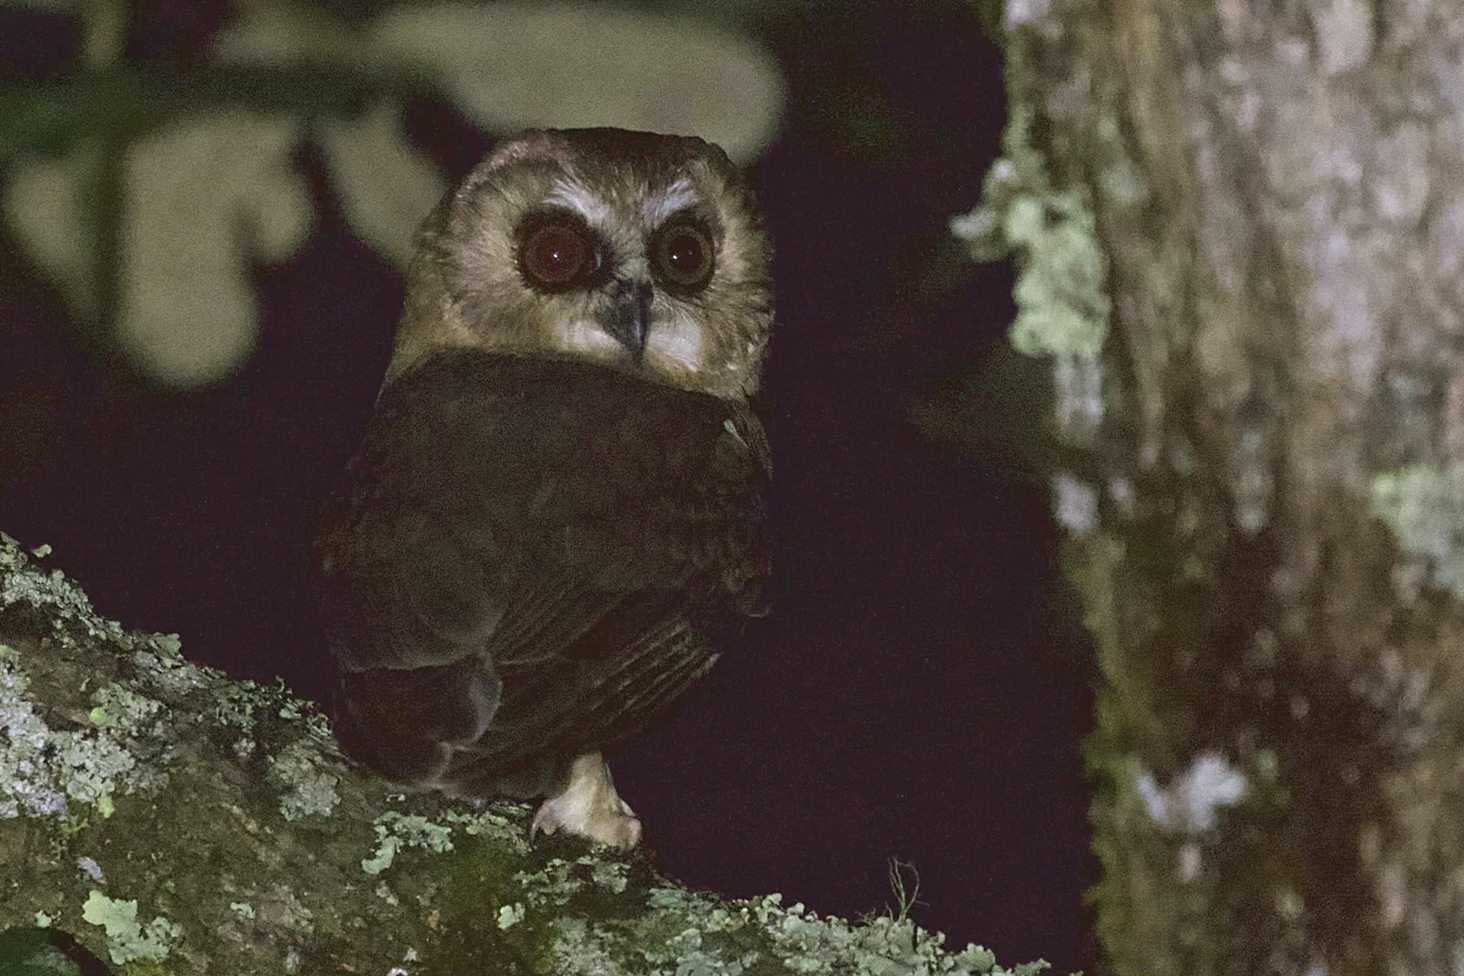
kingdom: Animalia
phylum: Chordata
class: Aves
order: Strigiformes
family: Strigidae
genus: Aegolius
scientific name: Aegolius ridgwayi
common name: Unspotted saw-whet owl
